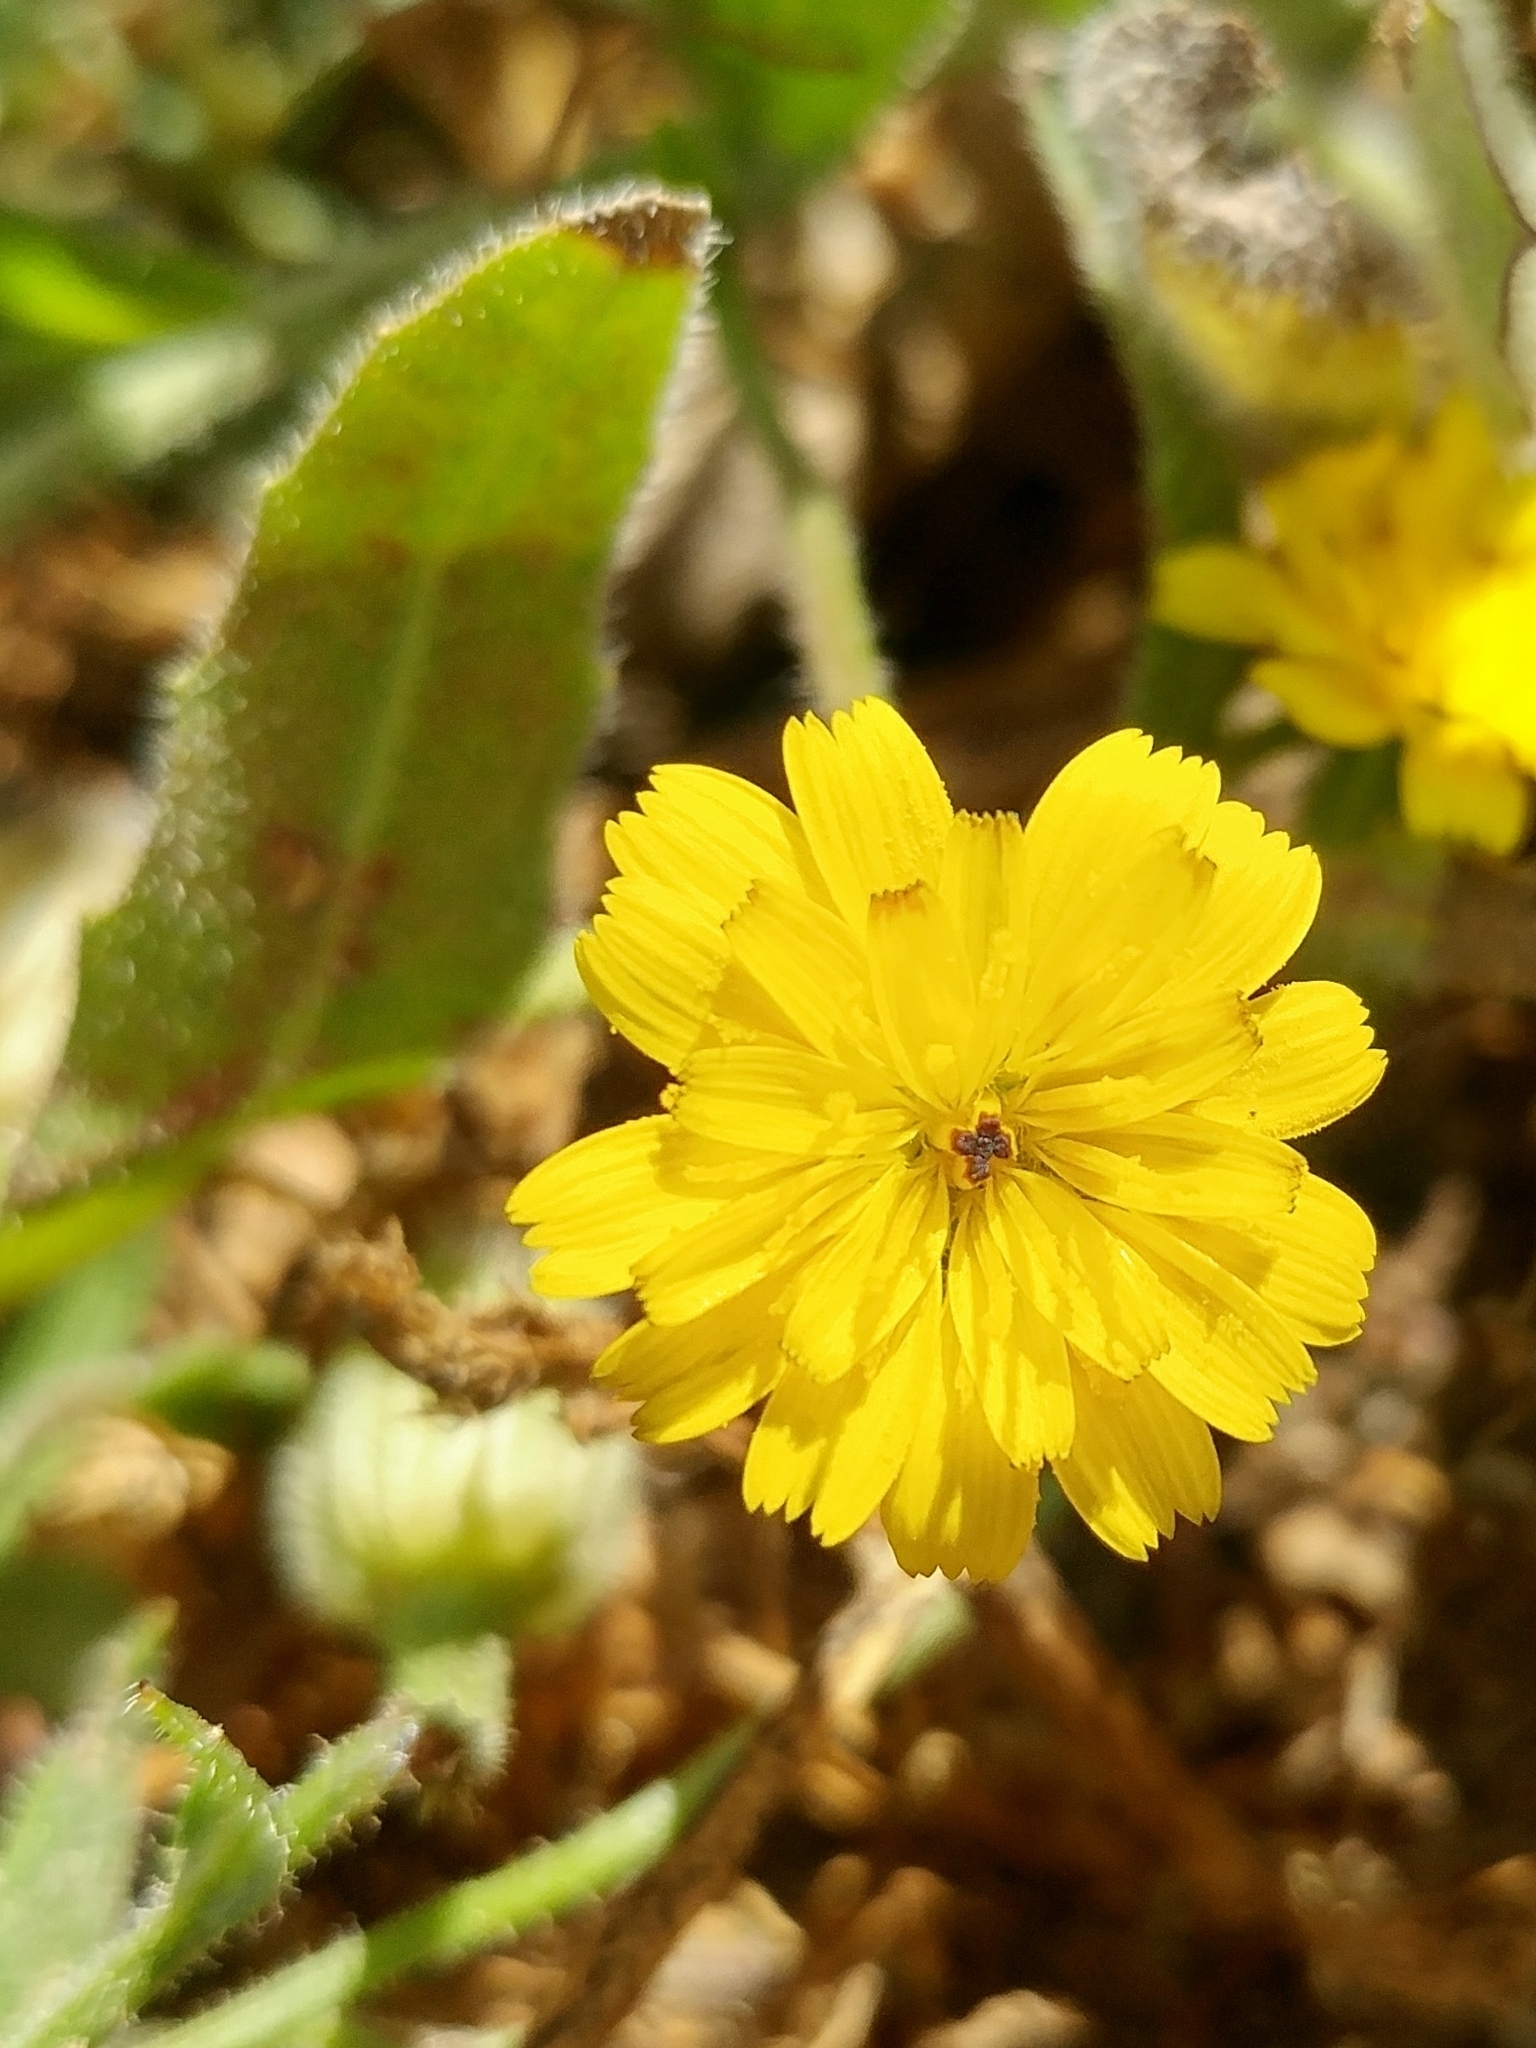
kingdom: Plantae
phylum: Tracheophyta
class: Magnoliopsida
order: Asterales
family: Asteraceae
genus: Hedypnois
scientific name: Hedypnois rhagadioloides
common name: Cretan weed
